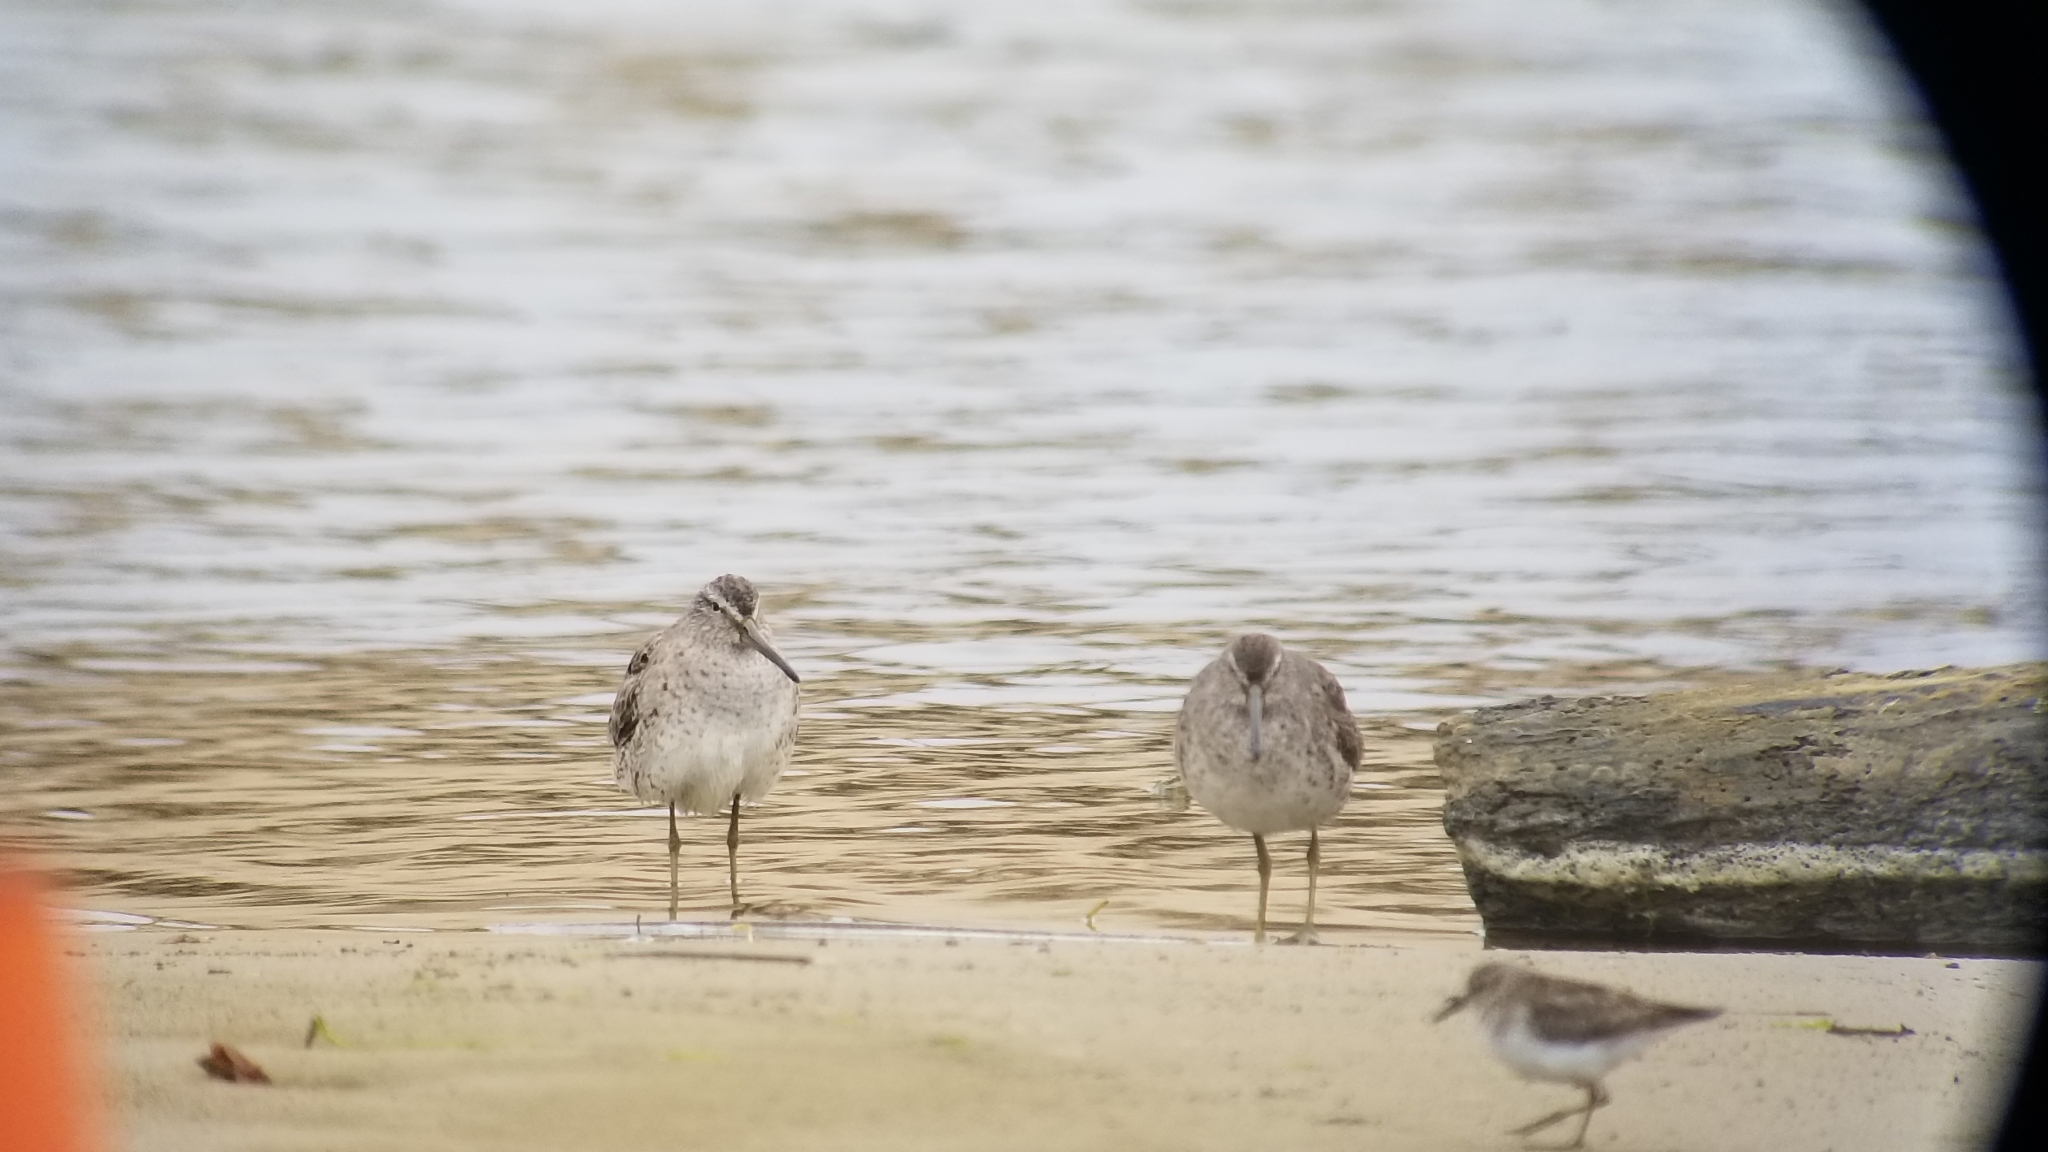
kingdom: Animalia
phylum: Chordata
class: Aves
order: Charadriiformes
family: Scolopacidae
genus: Limnodromus
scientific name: Limnodromus griseus
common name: Short-billed dowitcher
